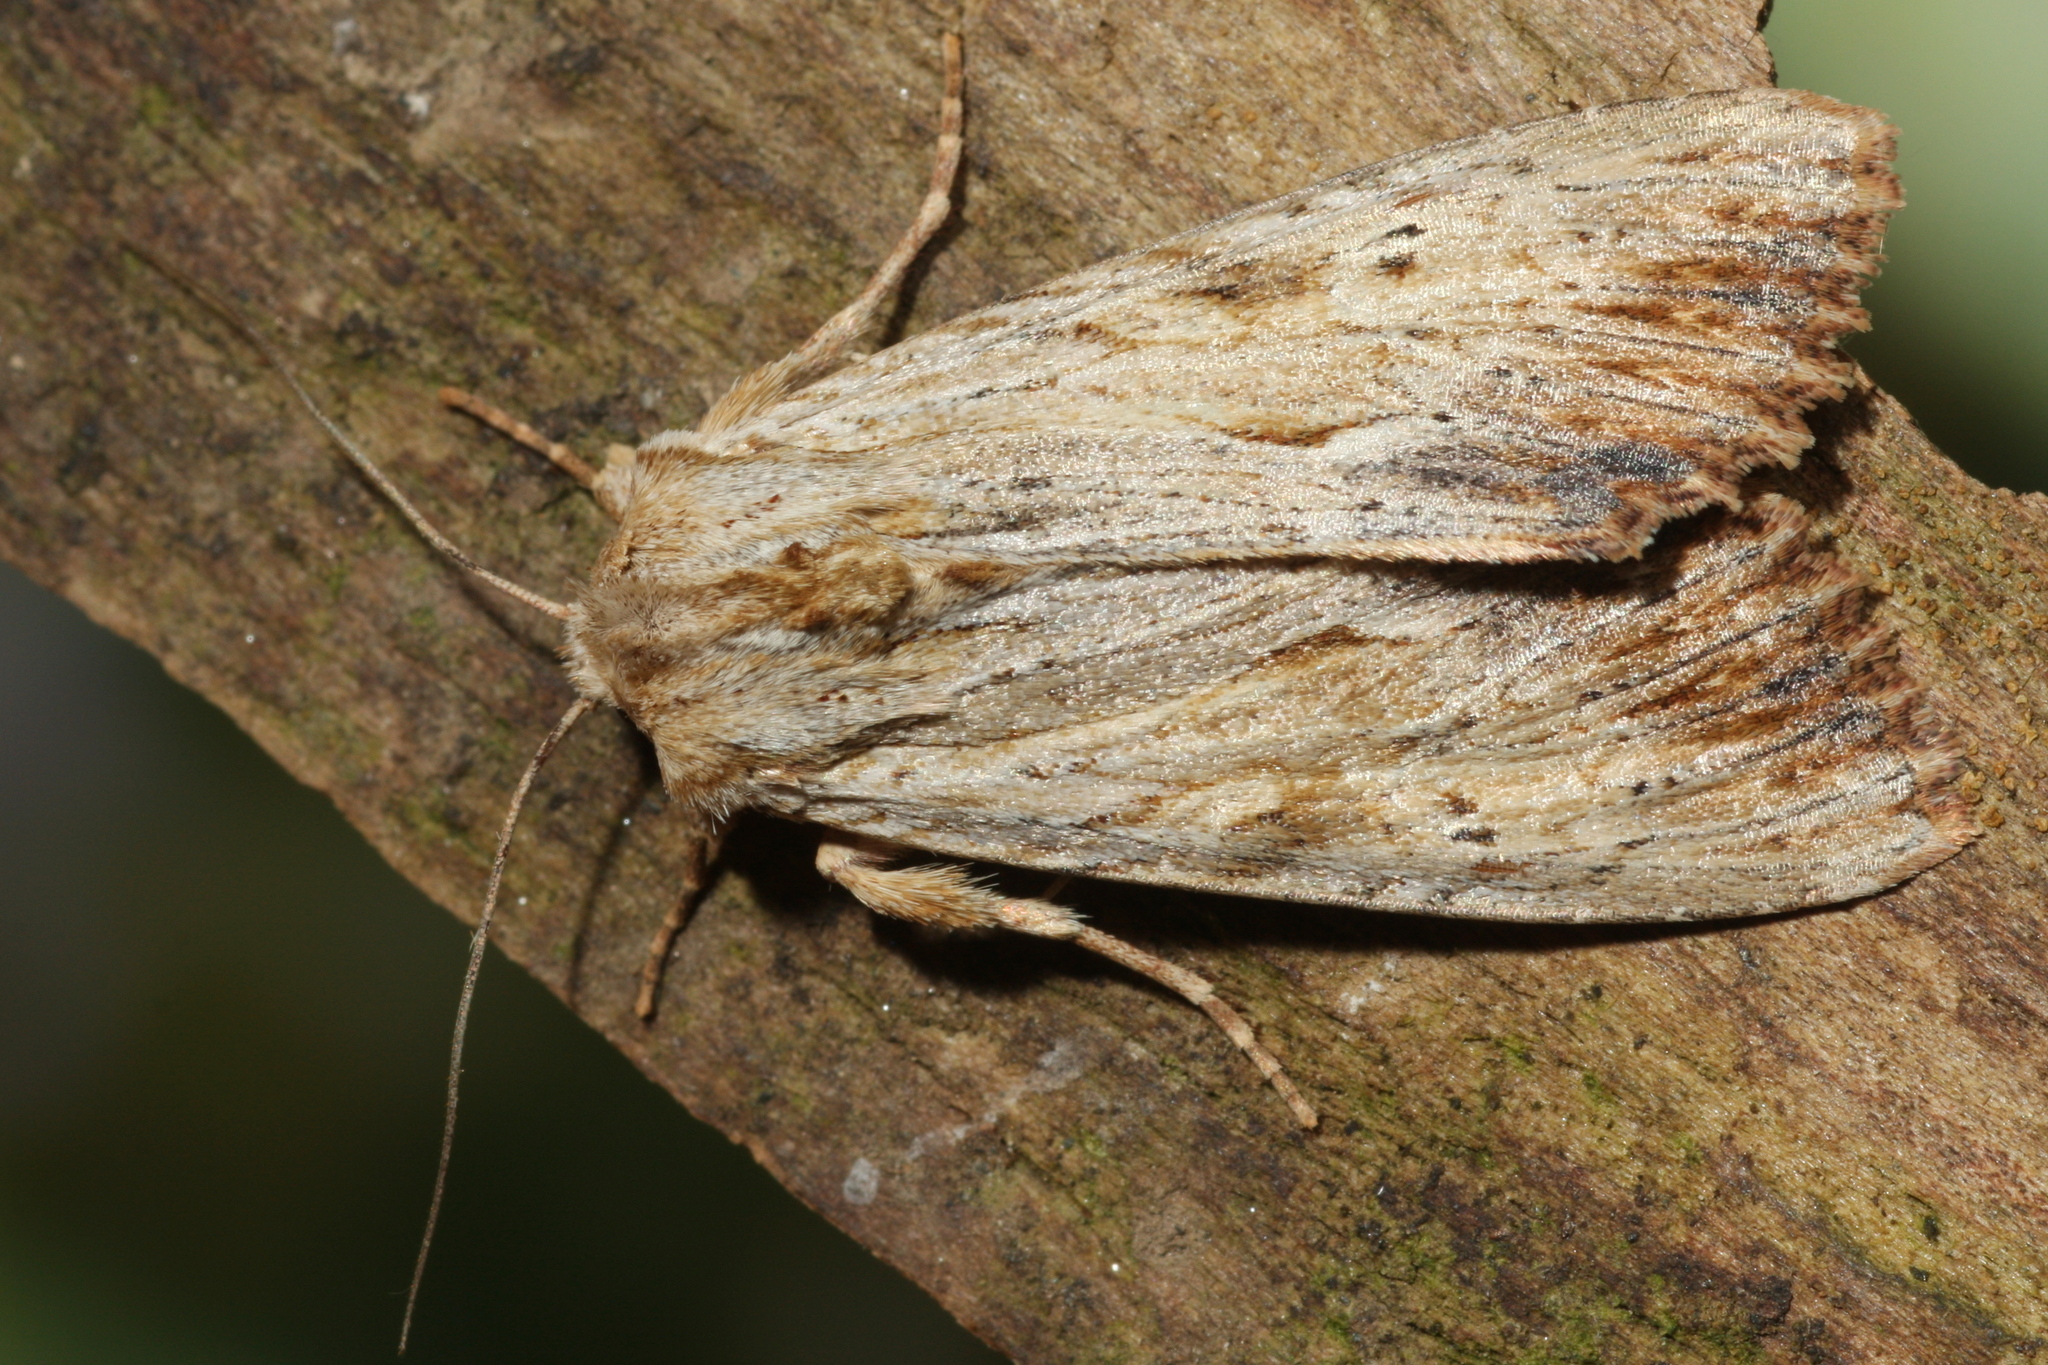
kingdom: Animalia
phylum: Arthropoda
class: Insecta
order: Lepidoptera
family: Noctuidae
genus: Apamea
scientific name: Apamea lithoxylaea
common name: Light arches
